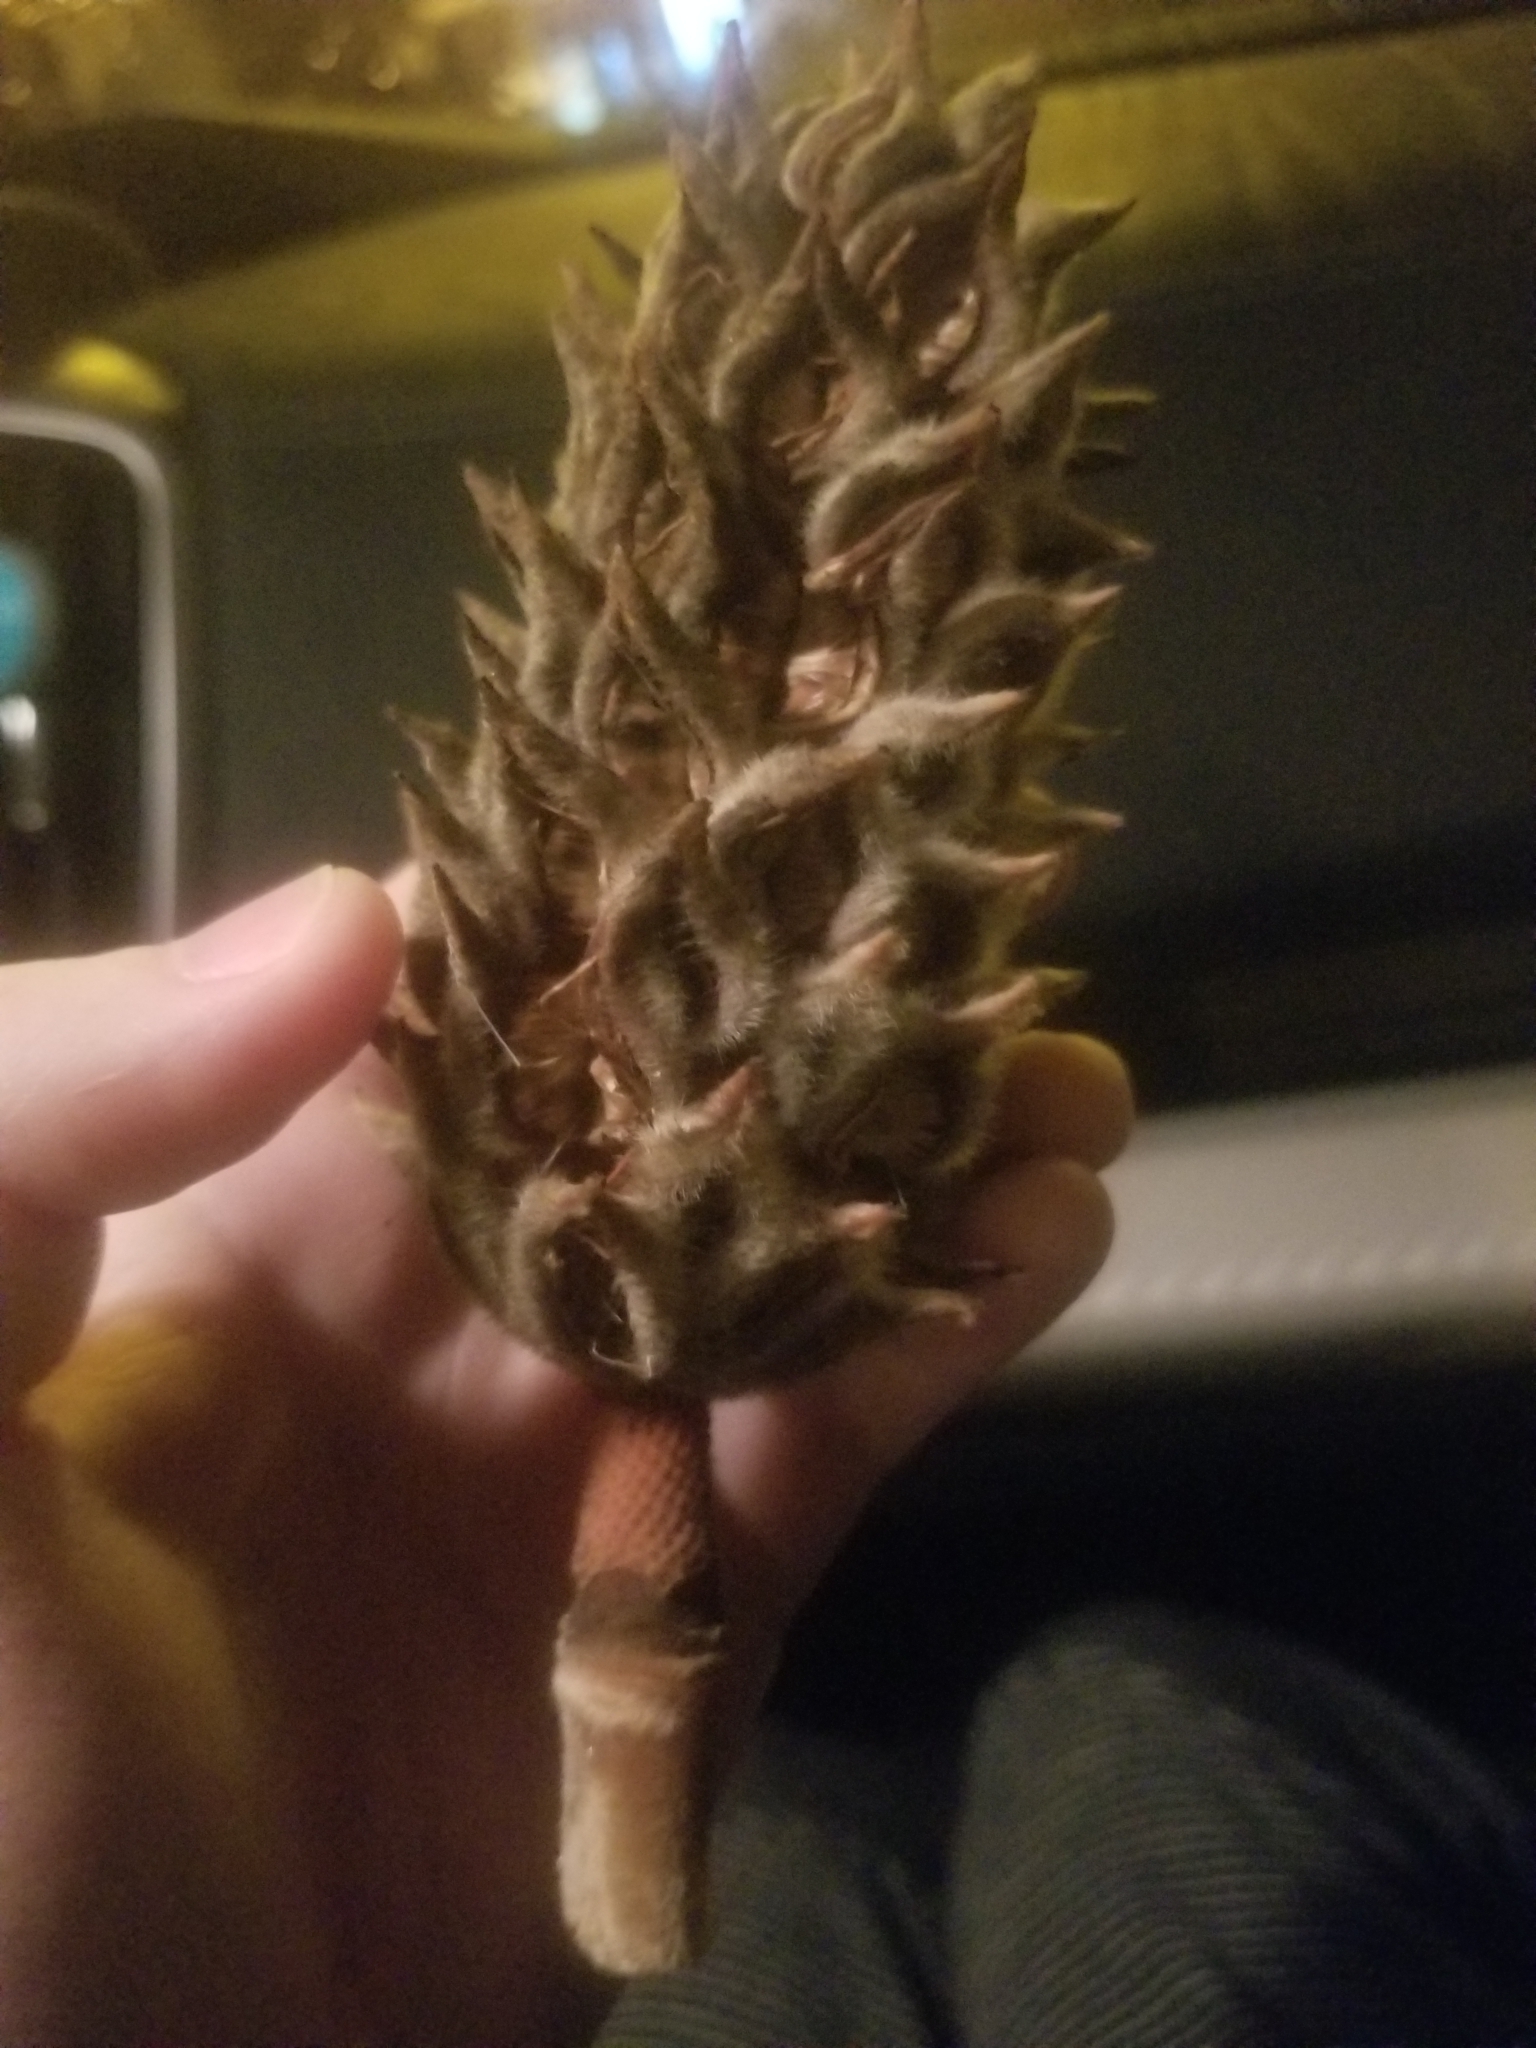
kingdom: Plantae
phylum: Tracheophyta
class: Magnoliopsida
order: Magnoliales
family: Magnoliaceae
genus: Magnolia
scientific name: Magnolia grandiflora
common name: Southern magnolia
